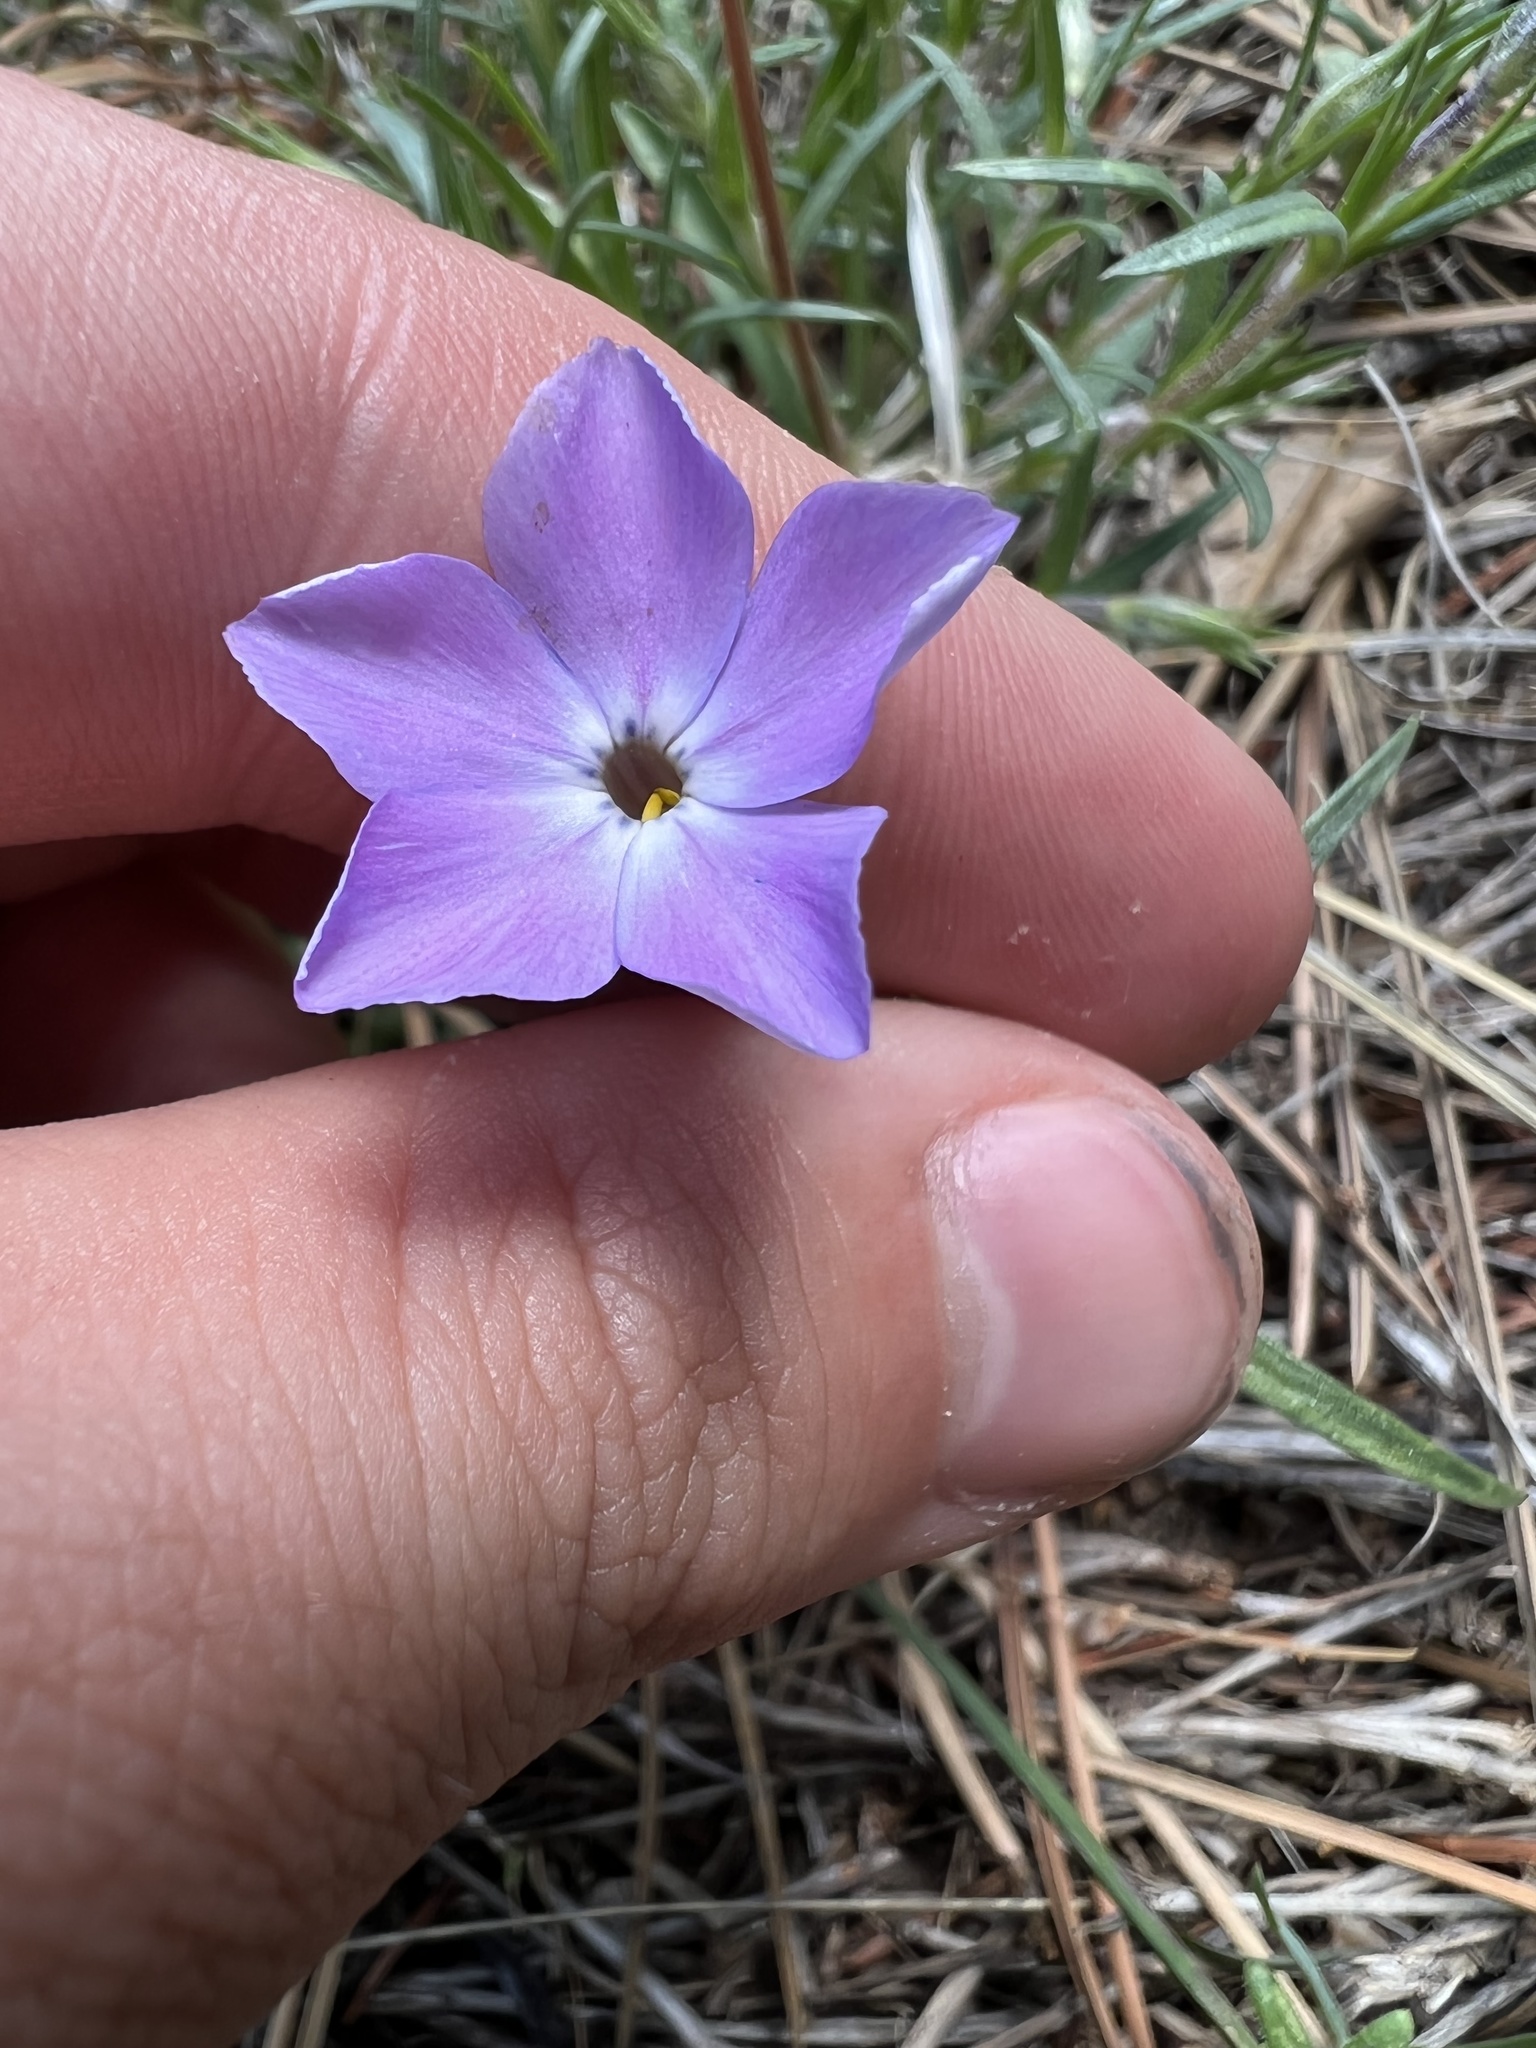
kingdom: Plantae
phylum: Tracheophyta
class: Magnoliopsida
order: Ericales
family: Polemoniaceae
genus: Phlox
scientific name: Phlox multiflora
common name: Rocky mountain phlox
